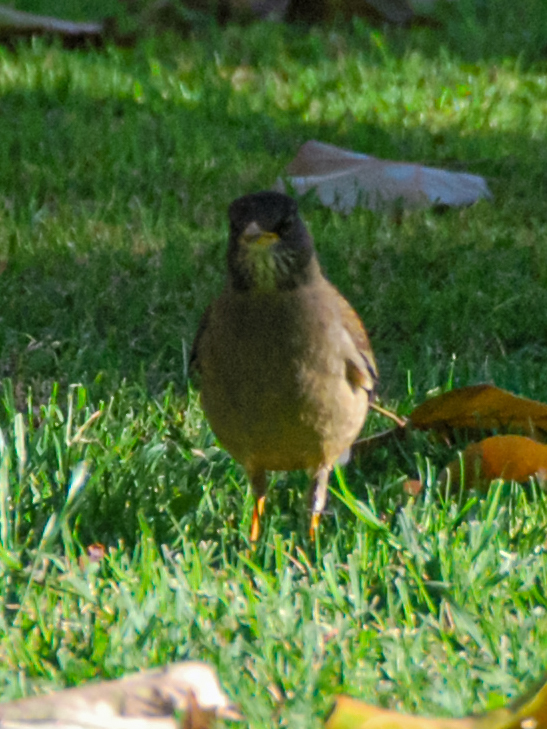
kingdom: Animalia
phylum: Chordata
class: Aves
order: Passeriformes
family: Turdidae
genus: Turdus
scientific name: Turdus falcklandii
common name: Austral thrush
